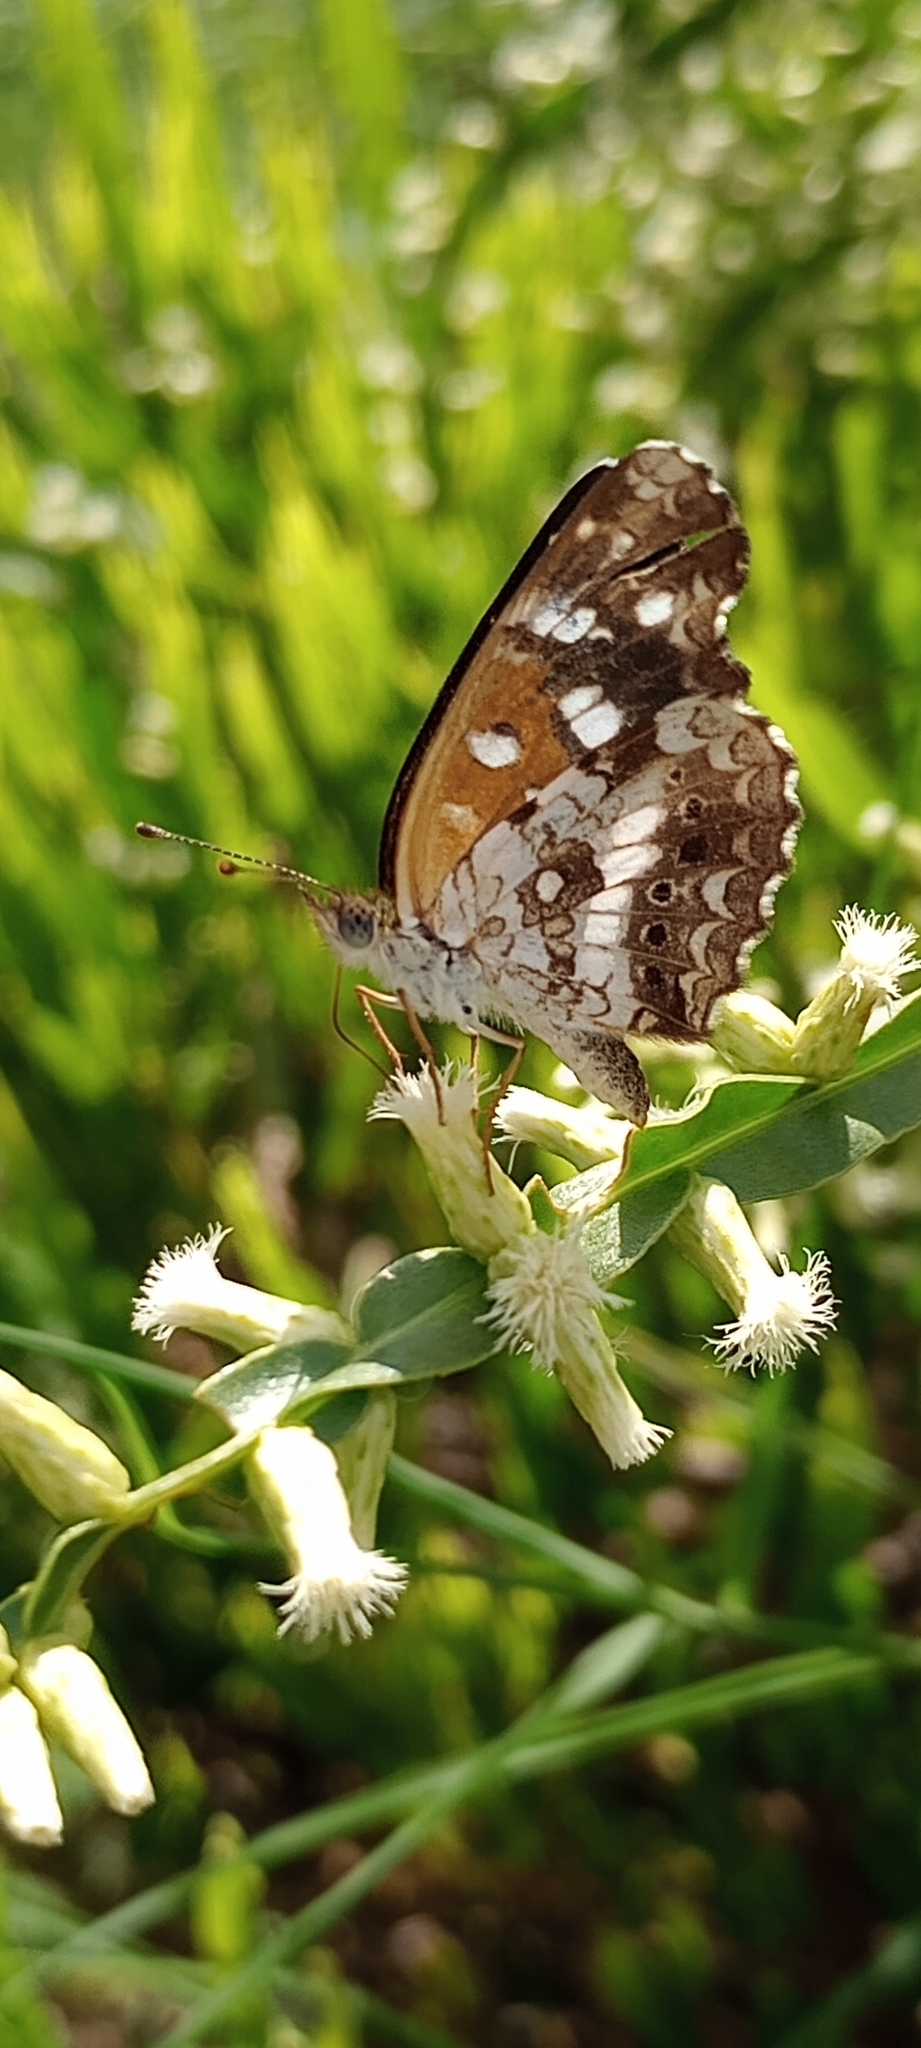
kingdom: Animalia
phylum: Arthropoda
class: Insecta
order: Lepidoptera
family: Nymphalidae
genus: Ortilia
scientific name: Ortilia ithra
